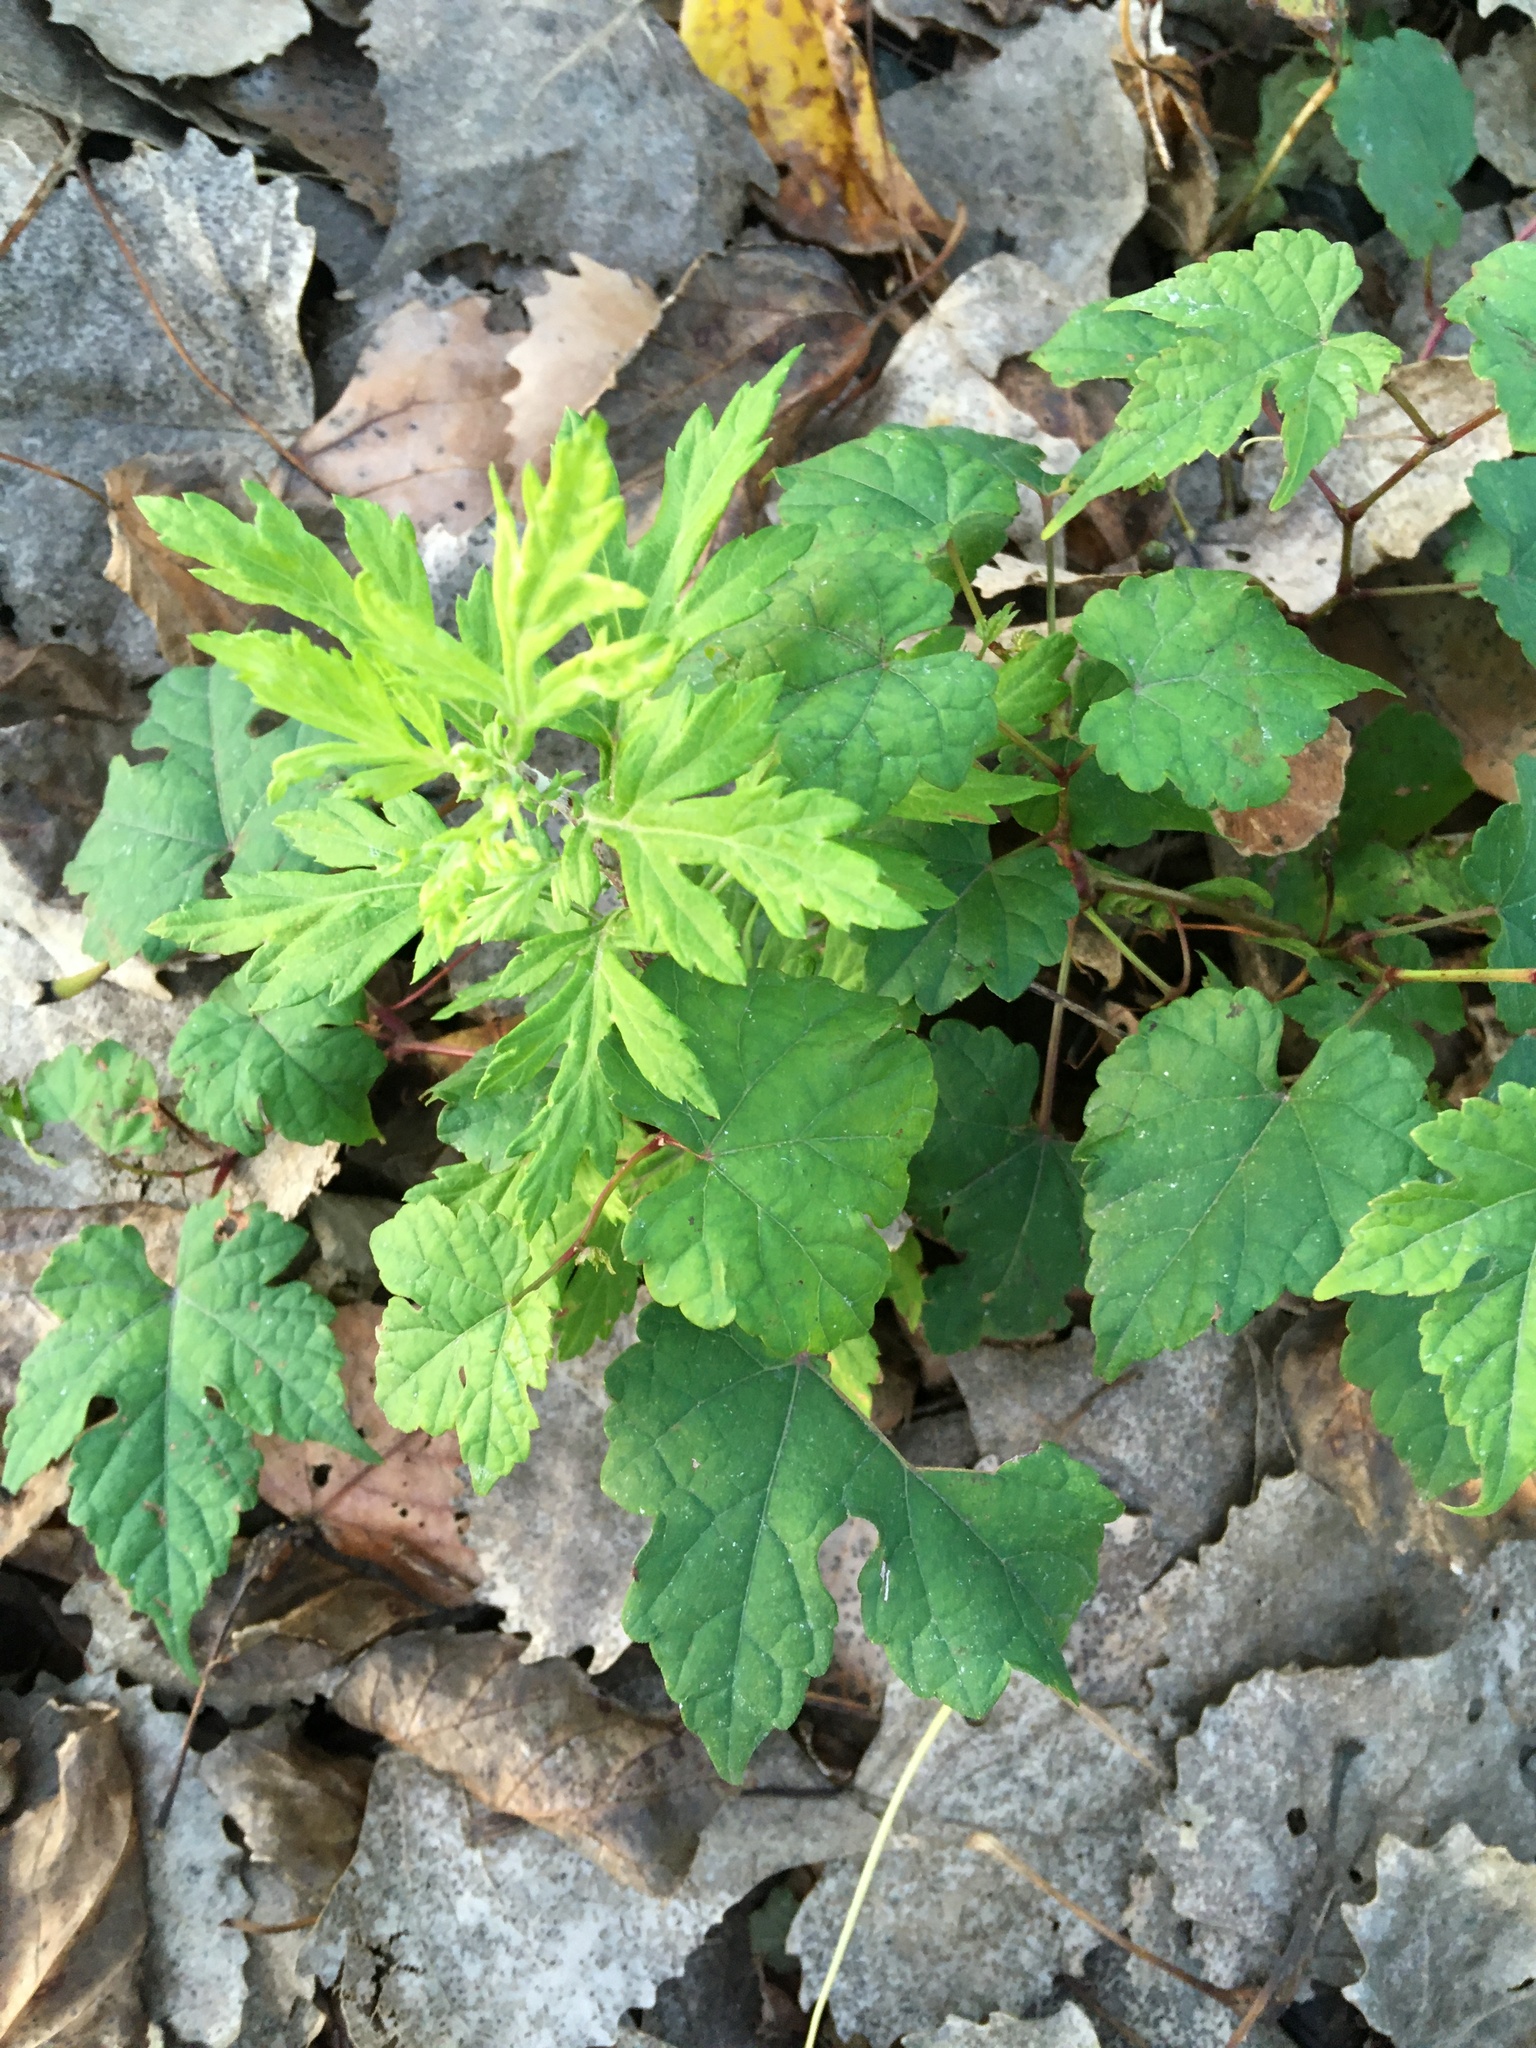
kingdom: Plantae
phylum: Tracheophyta
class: Magnoliopsida
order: Asterales
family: Asteraceae
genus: Artemisia
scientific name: Artemisia vulgaris
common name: Mugwort
